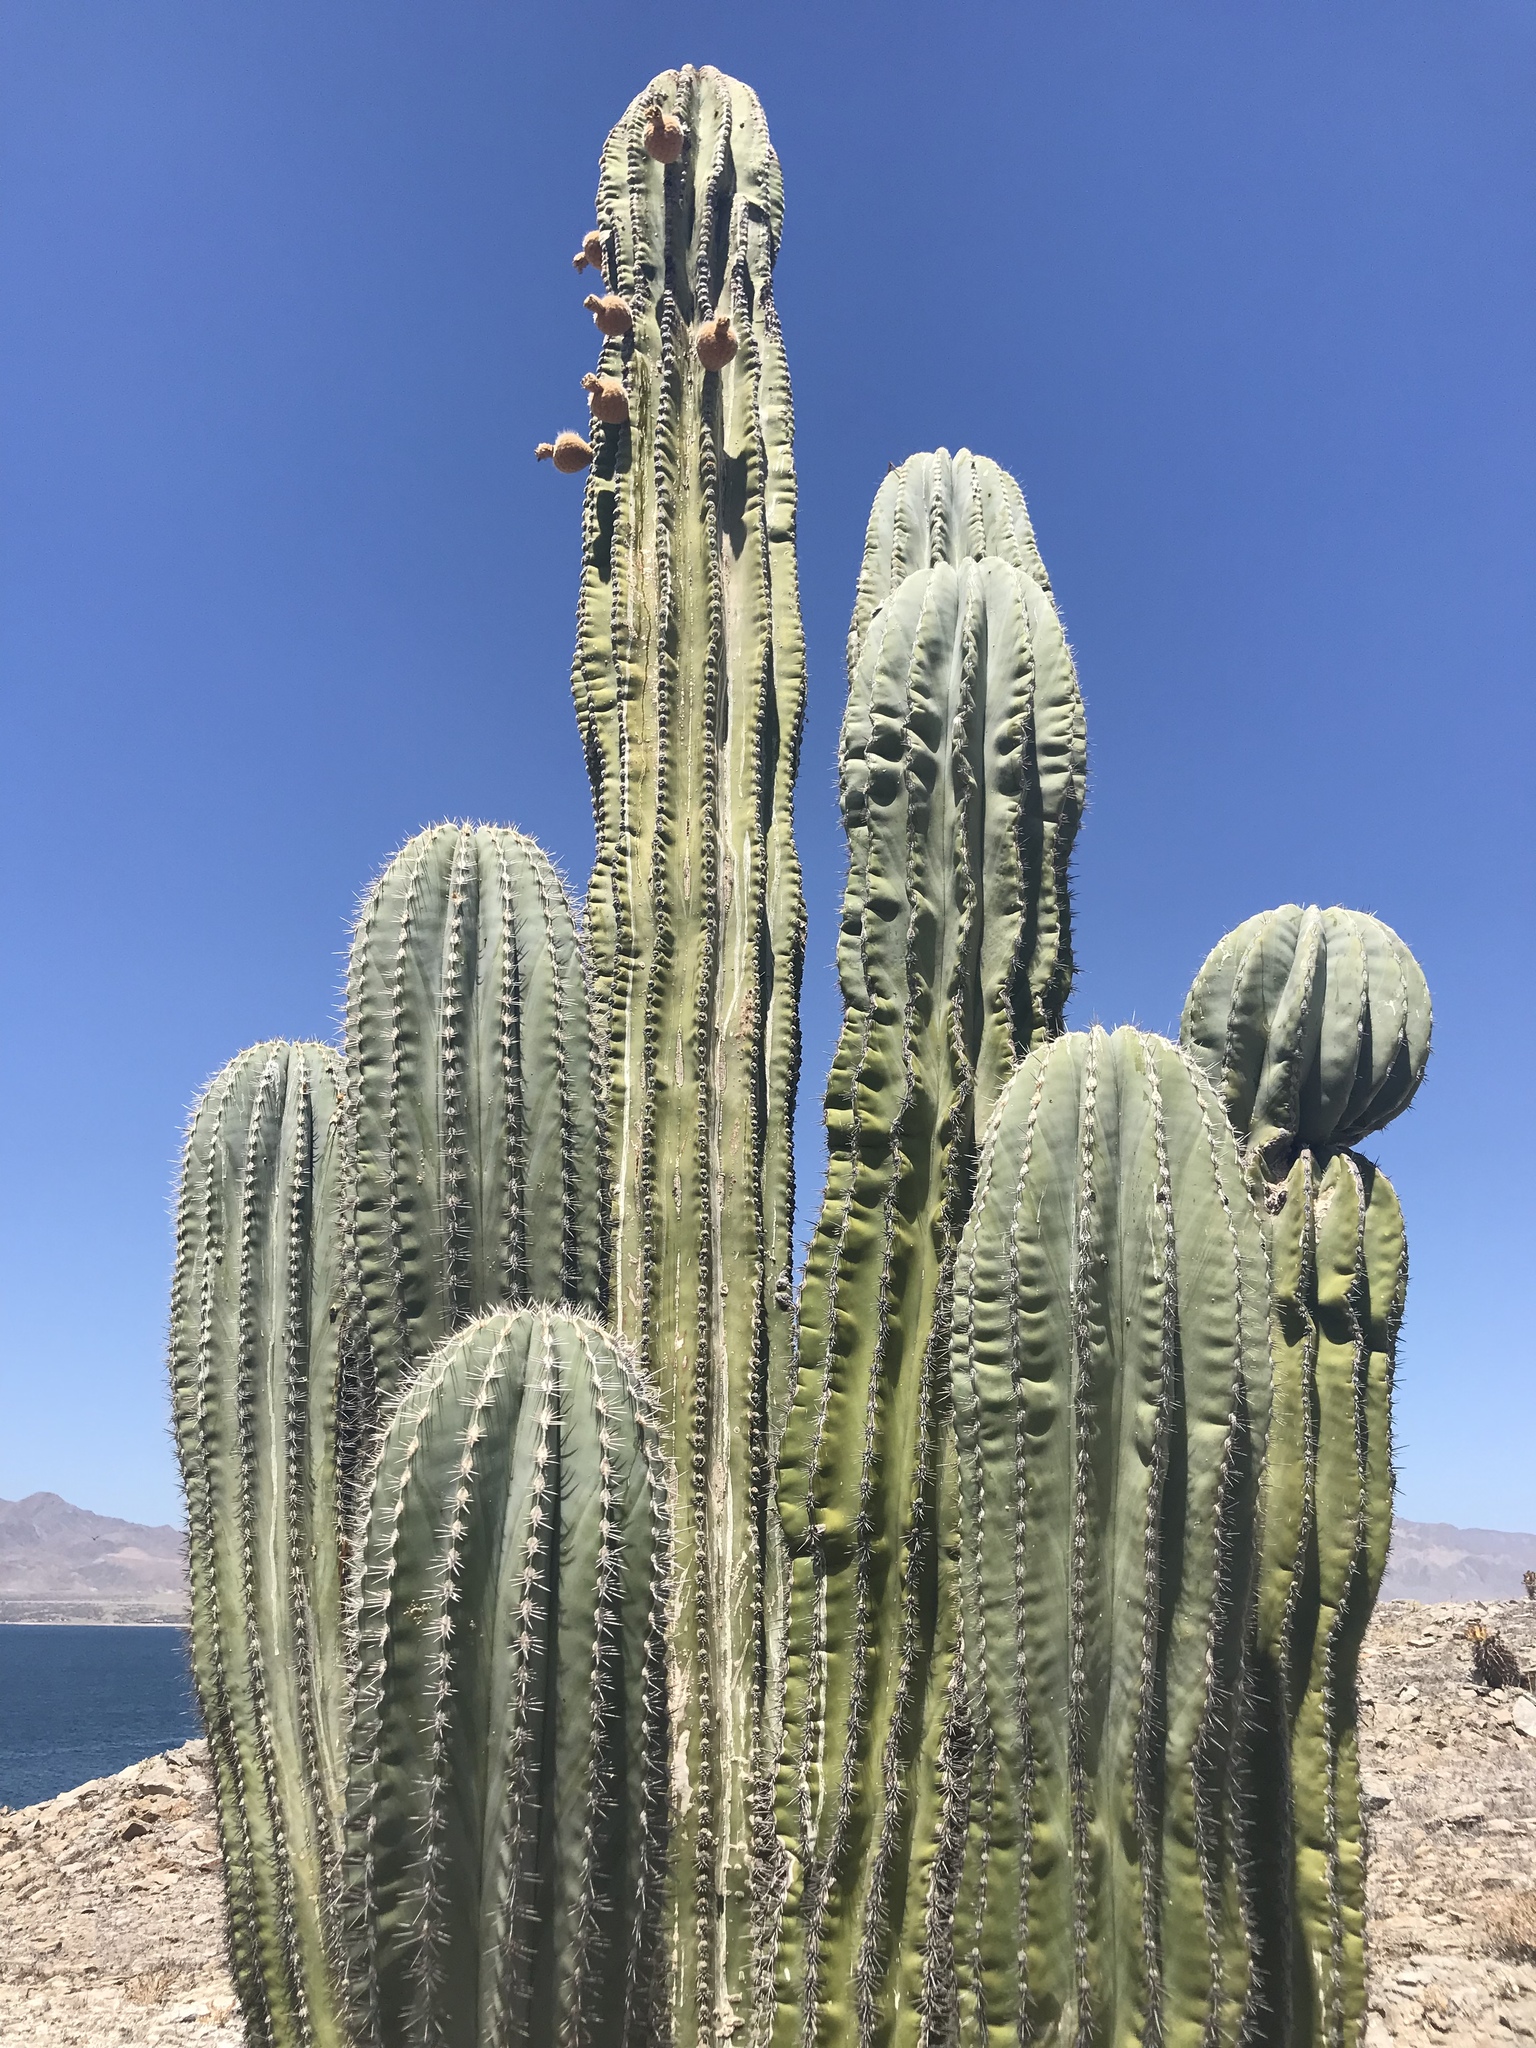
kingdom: Plantae
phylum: Tracheophyta
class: Magnoliopsida
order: Caryophyllales
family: Cactaceae
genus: Pachycereus
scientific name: Pachycereus pringlei
